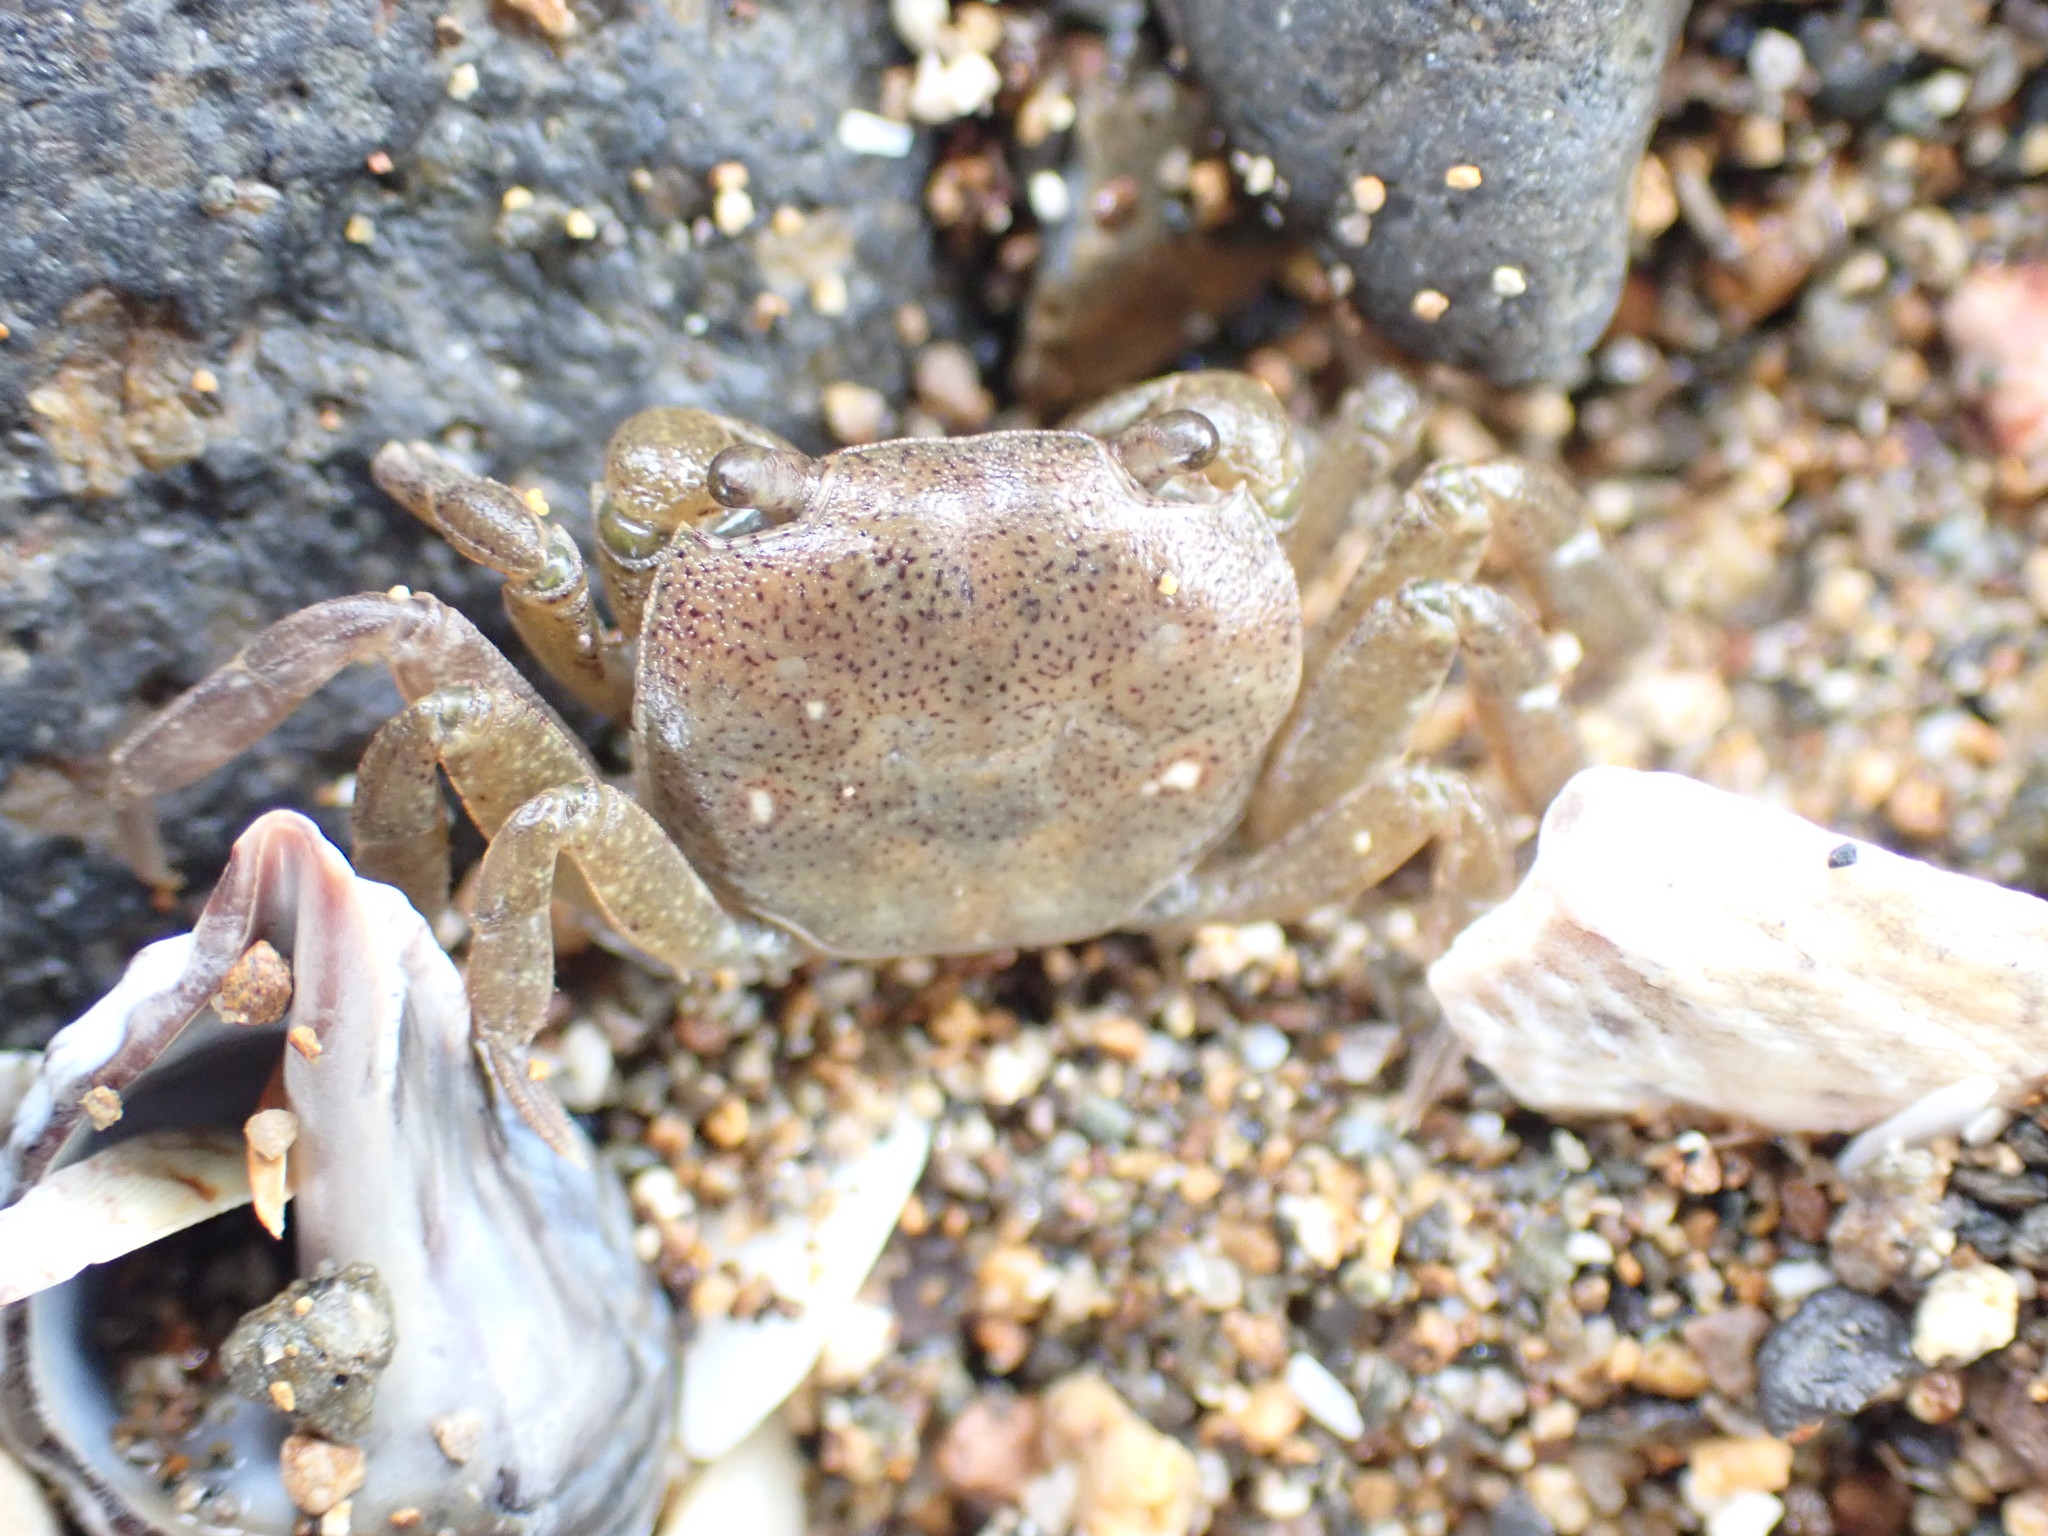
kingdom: Animalia
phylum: Arthropoda
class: Malacostraca
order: Decapoda
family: Varunidae
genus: Cyclograpsus
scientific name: Cyclograpsus lavauxi
